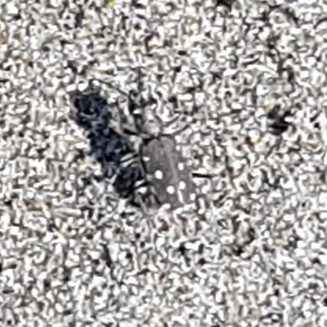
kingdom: Animalia
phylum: Arthropoda
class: Insecta
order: Coleoptera
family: Carabidae
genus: Cicindela
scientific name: Cicindela littoralis
